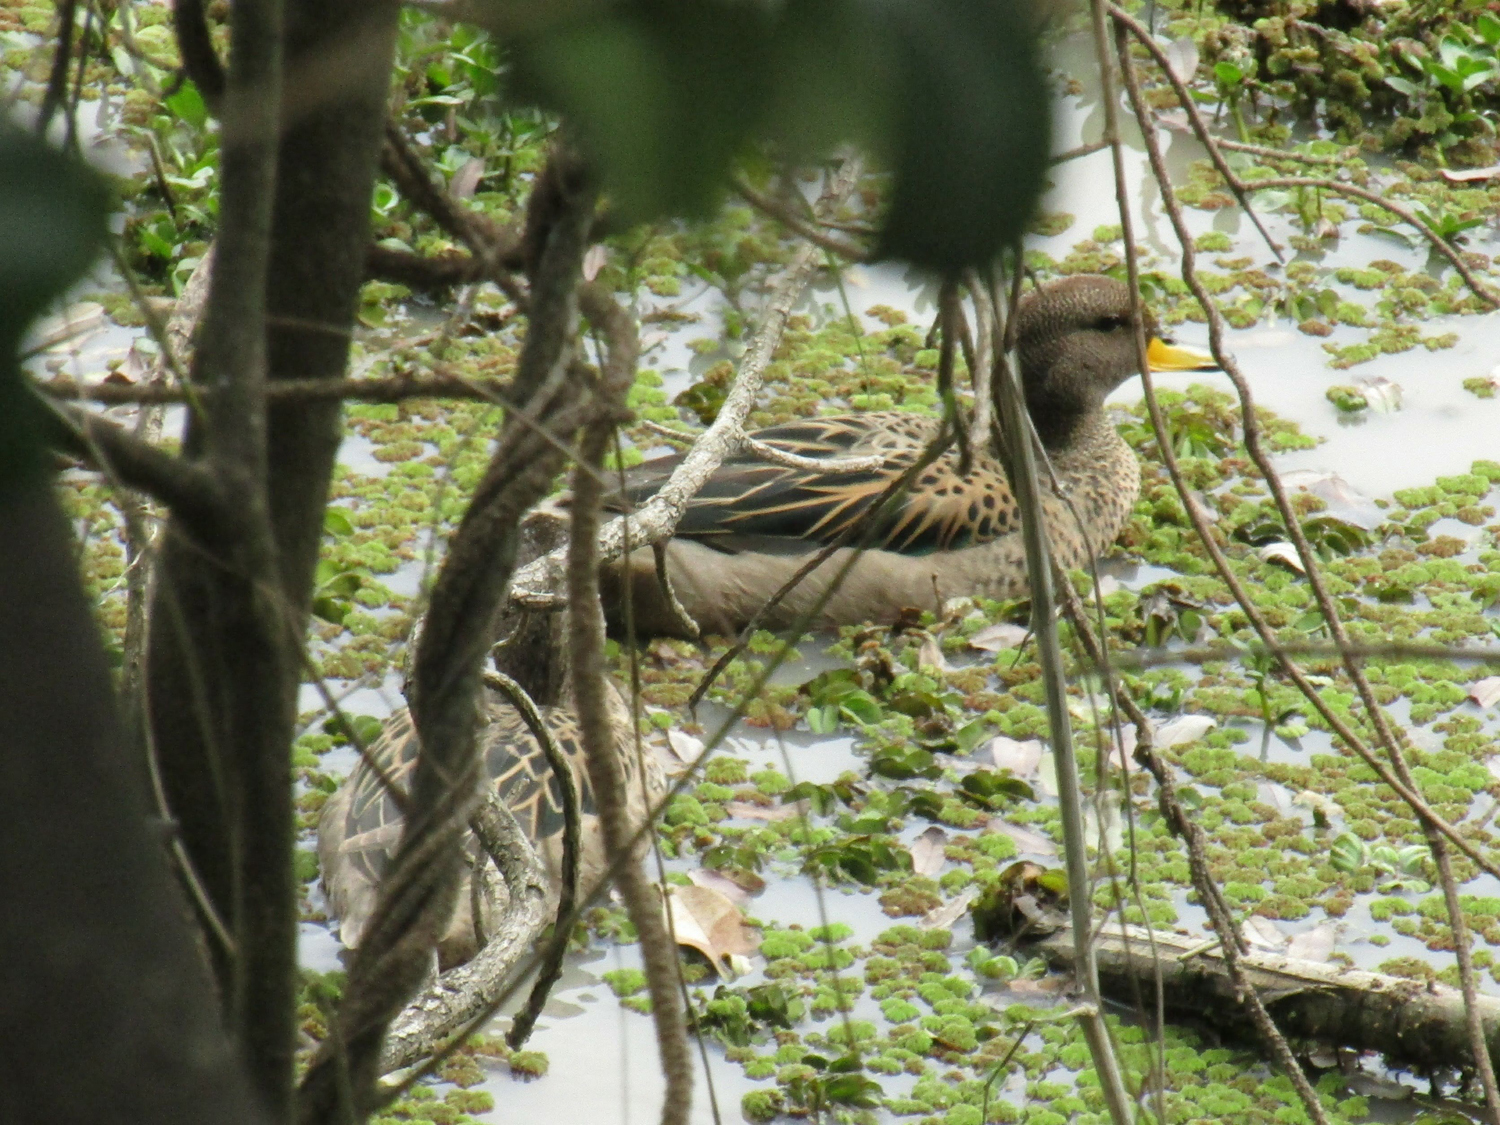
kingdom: Animalia
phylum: Chordata
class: Aves
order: Anseriformes
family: Anatidae
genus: Anas
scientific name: Anas flavirostris
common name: Yellow-billed teal
